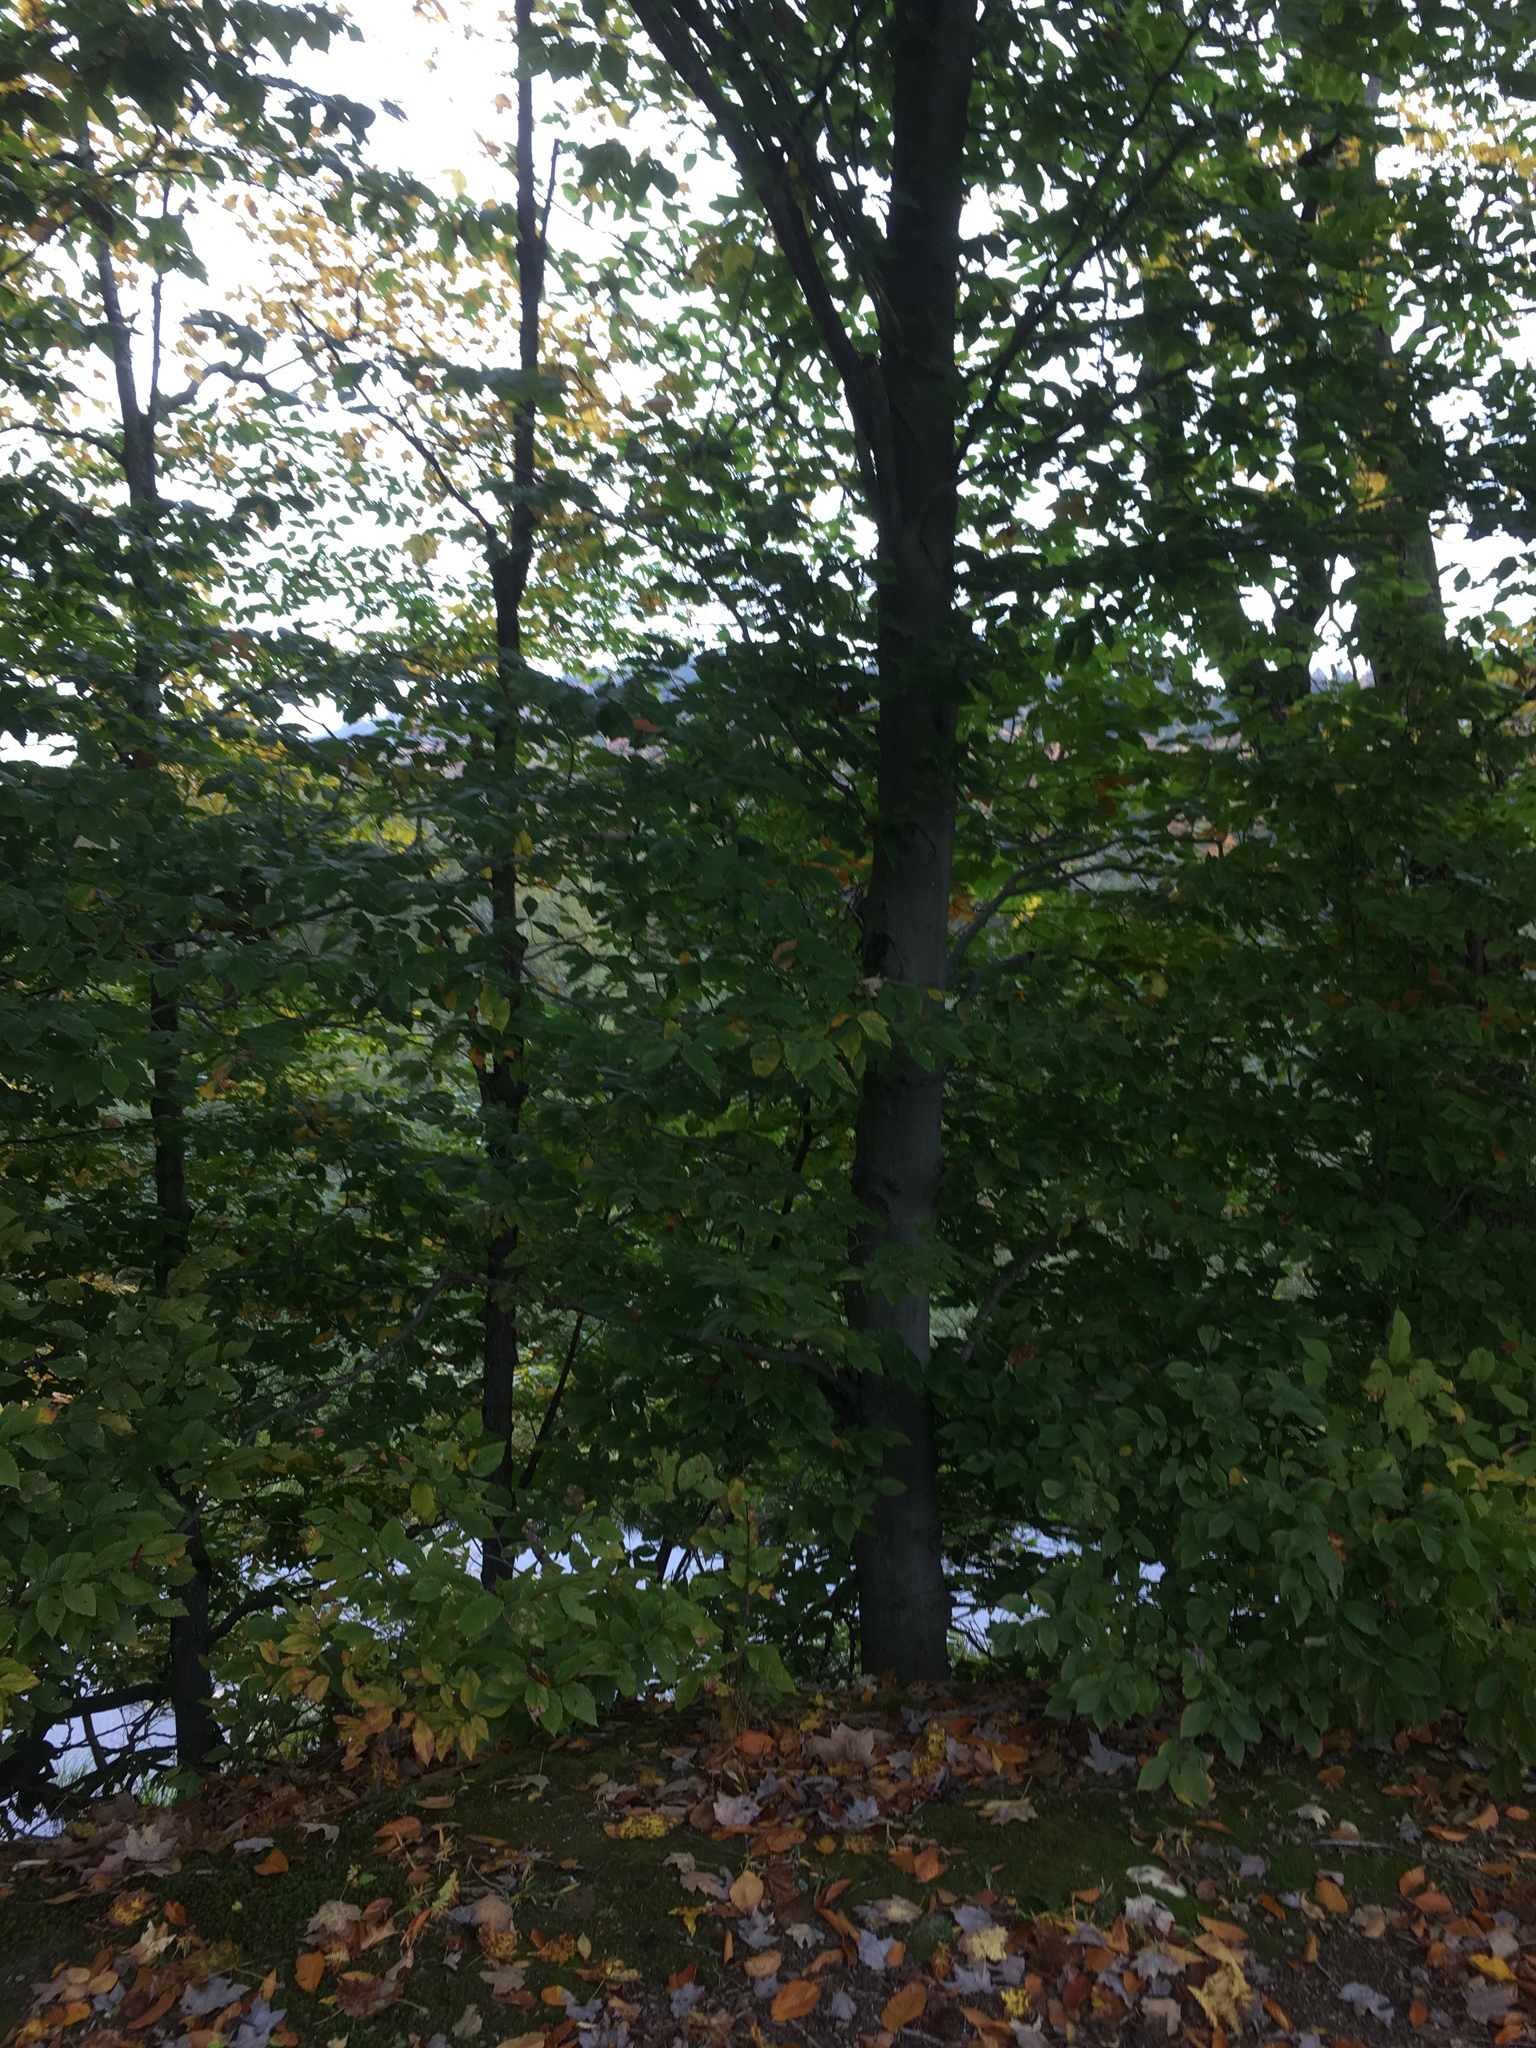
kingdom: Plantae
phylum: Tracheophyta
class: Magnoliopsida
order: Fagales
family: Fagaceae
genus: Fagus
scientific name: Fagus grandifolia
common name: American beech
